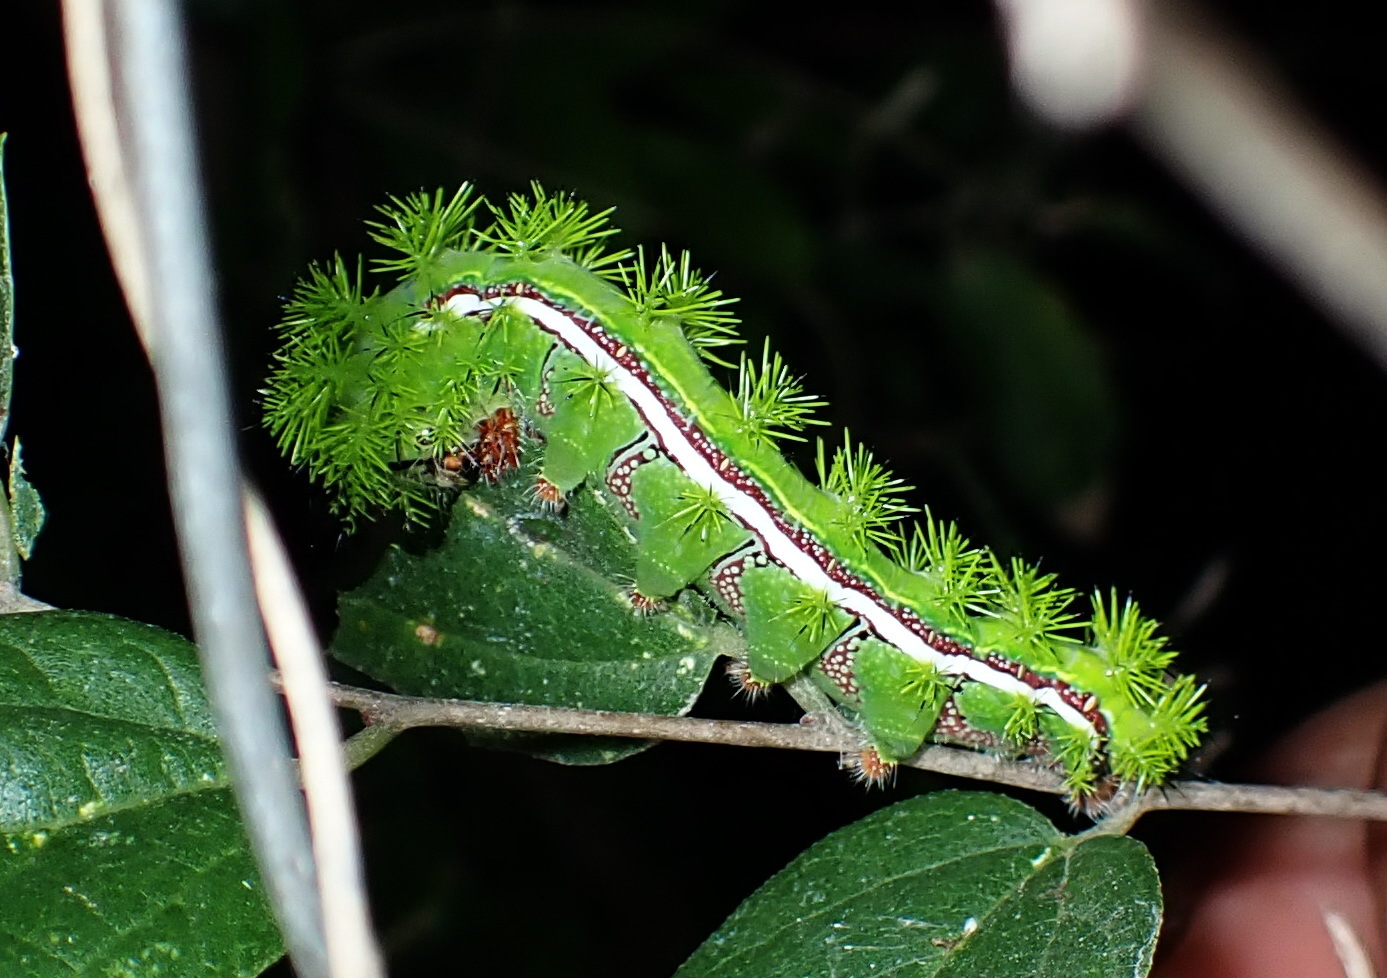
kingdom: Animalia
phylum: Arthropoda
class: Insecta
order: Lepidoptera
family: Saturniidae
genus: Automeris
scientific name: Automeris io
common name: Io moth
